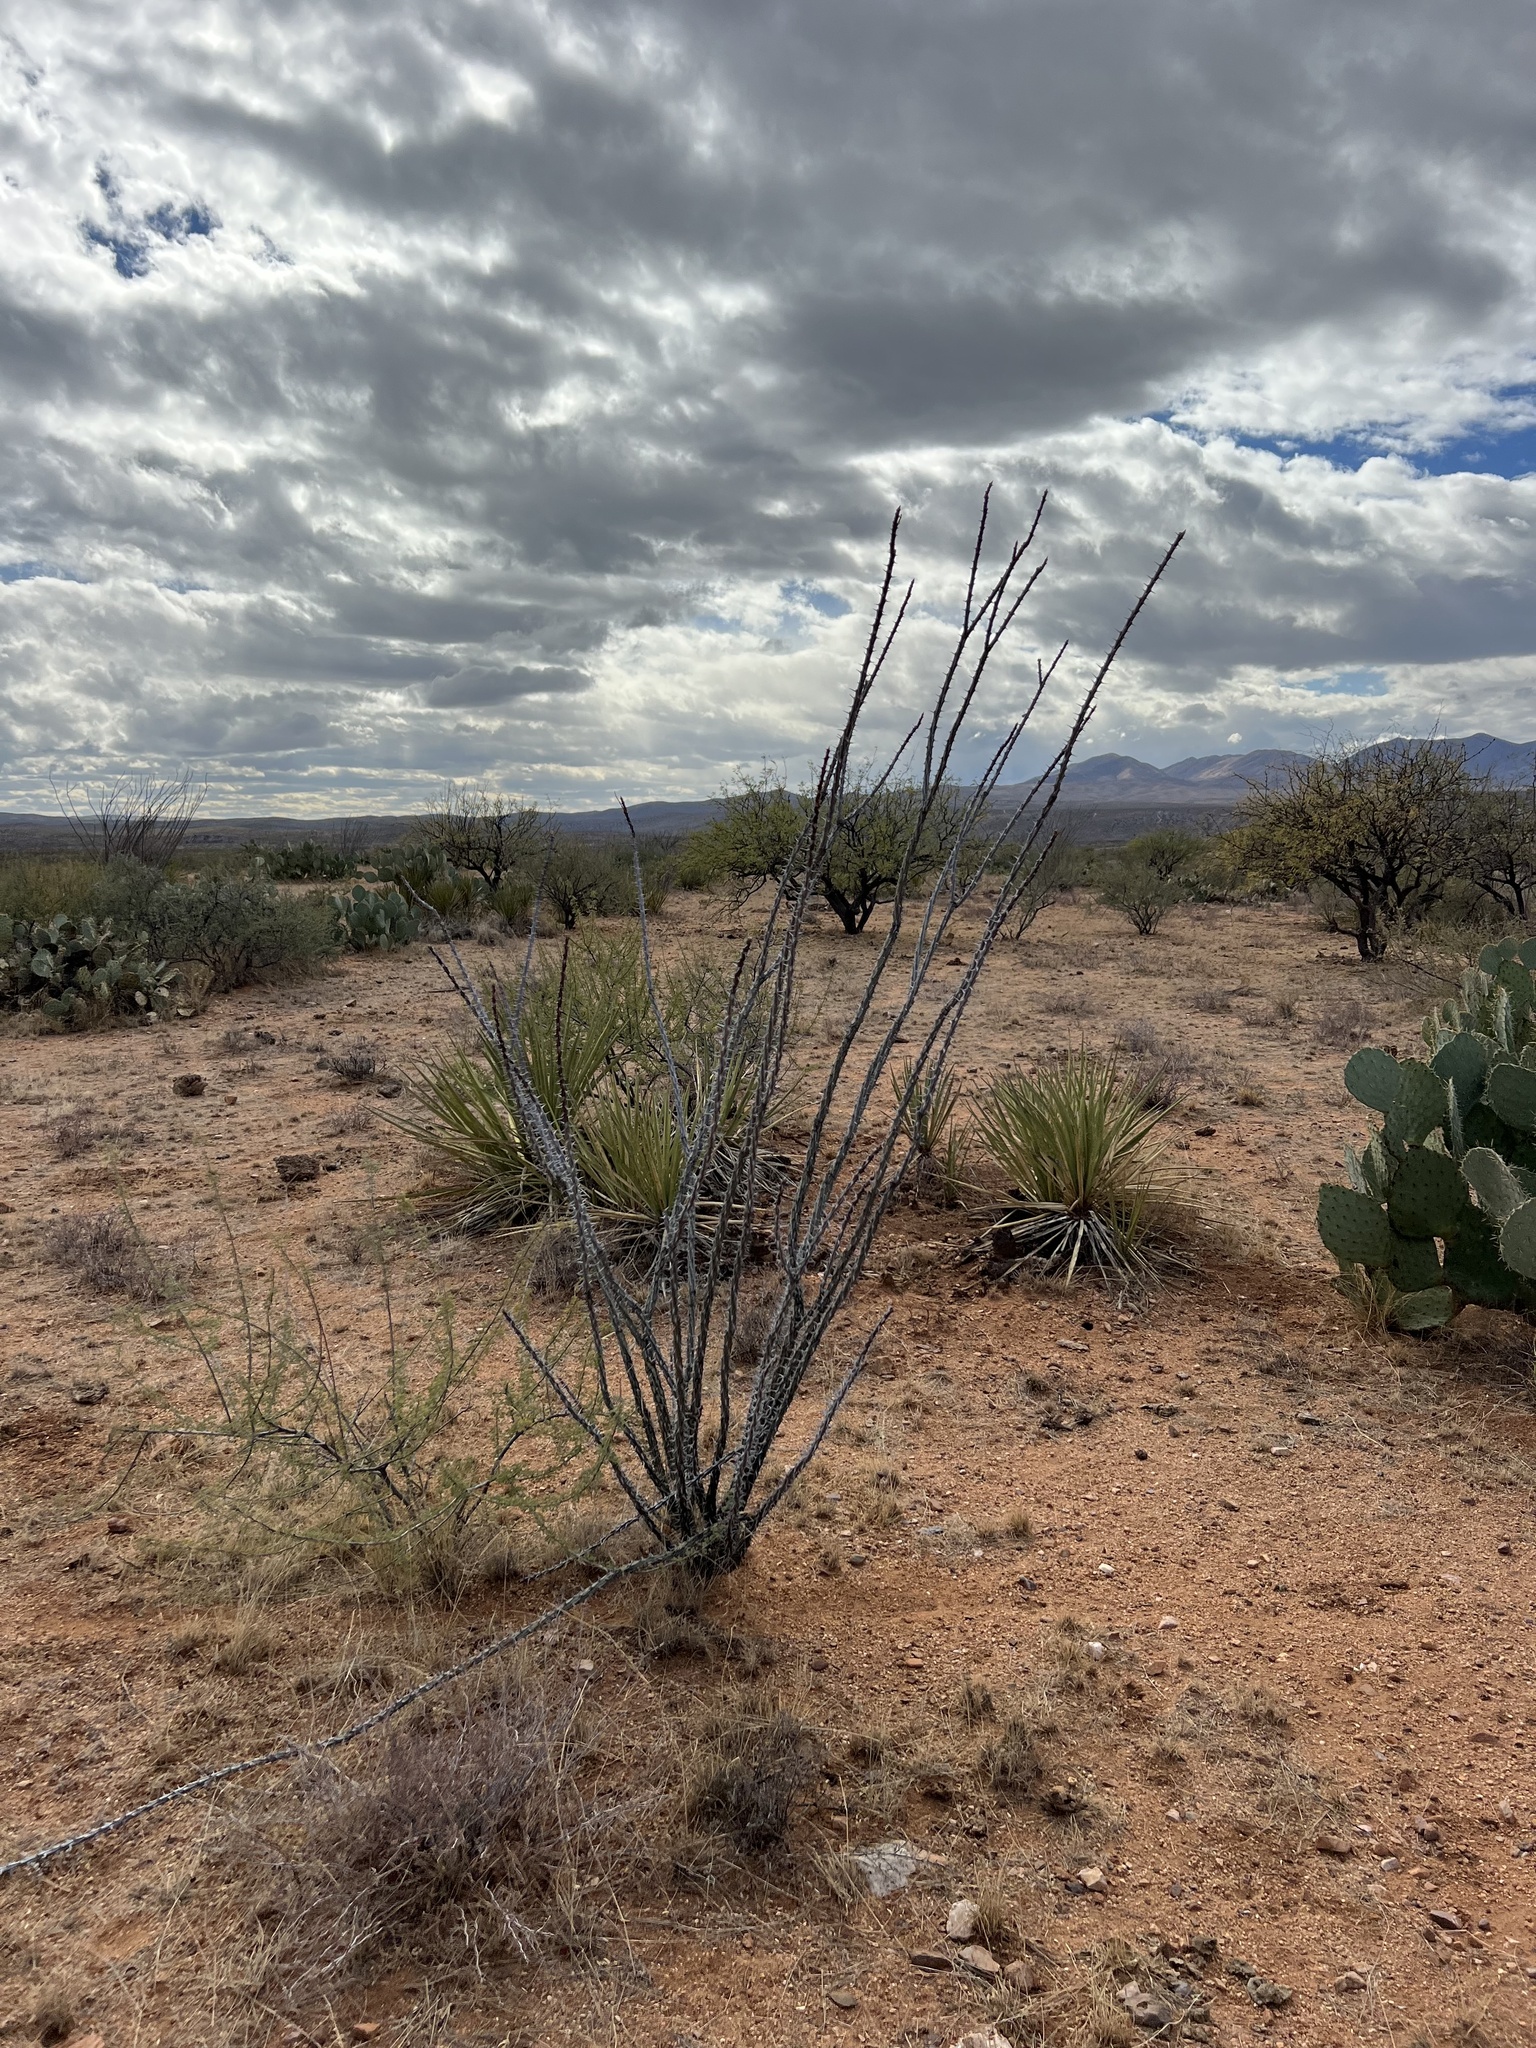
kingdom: Plantae
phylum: Tracheophyta
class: Magnoliopsida
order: Ericales
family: Fouquieriaceae
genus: Fouquieria
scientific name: Fouquieria splendens
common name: Vine-cactus
